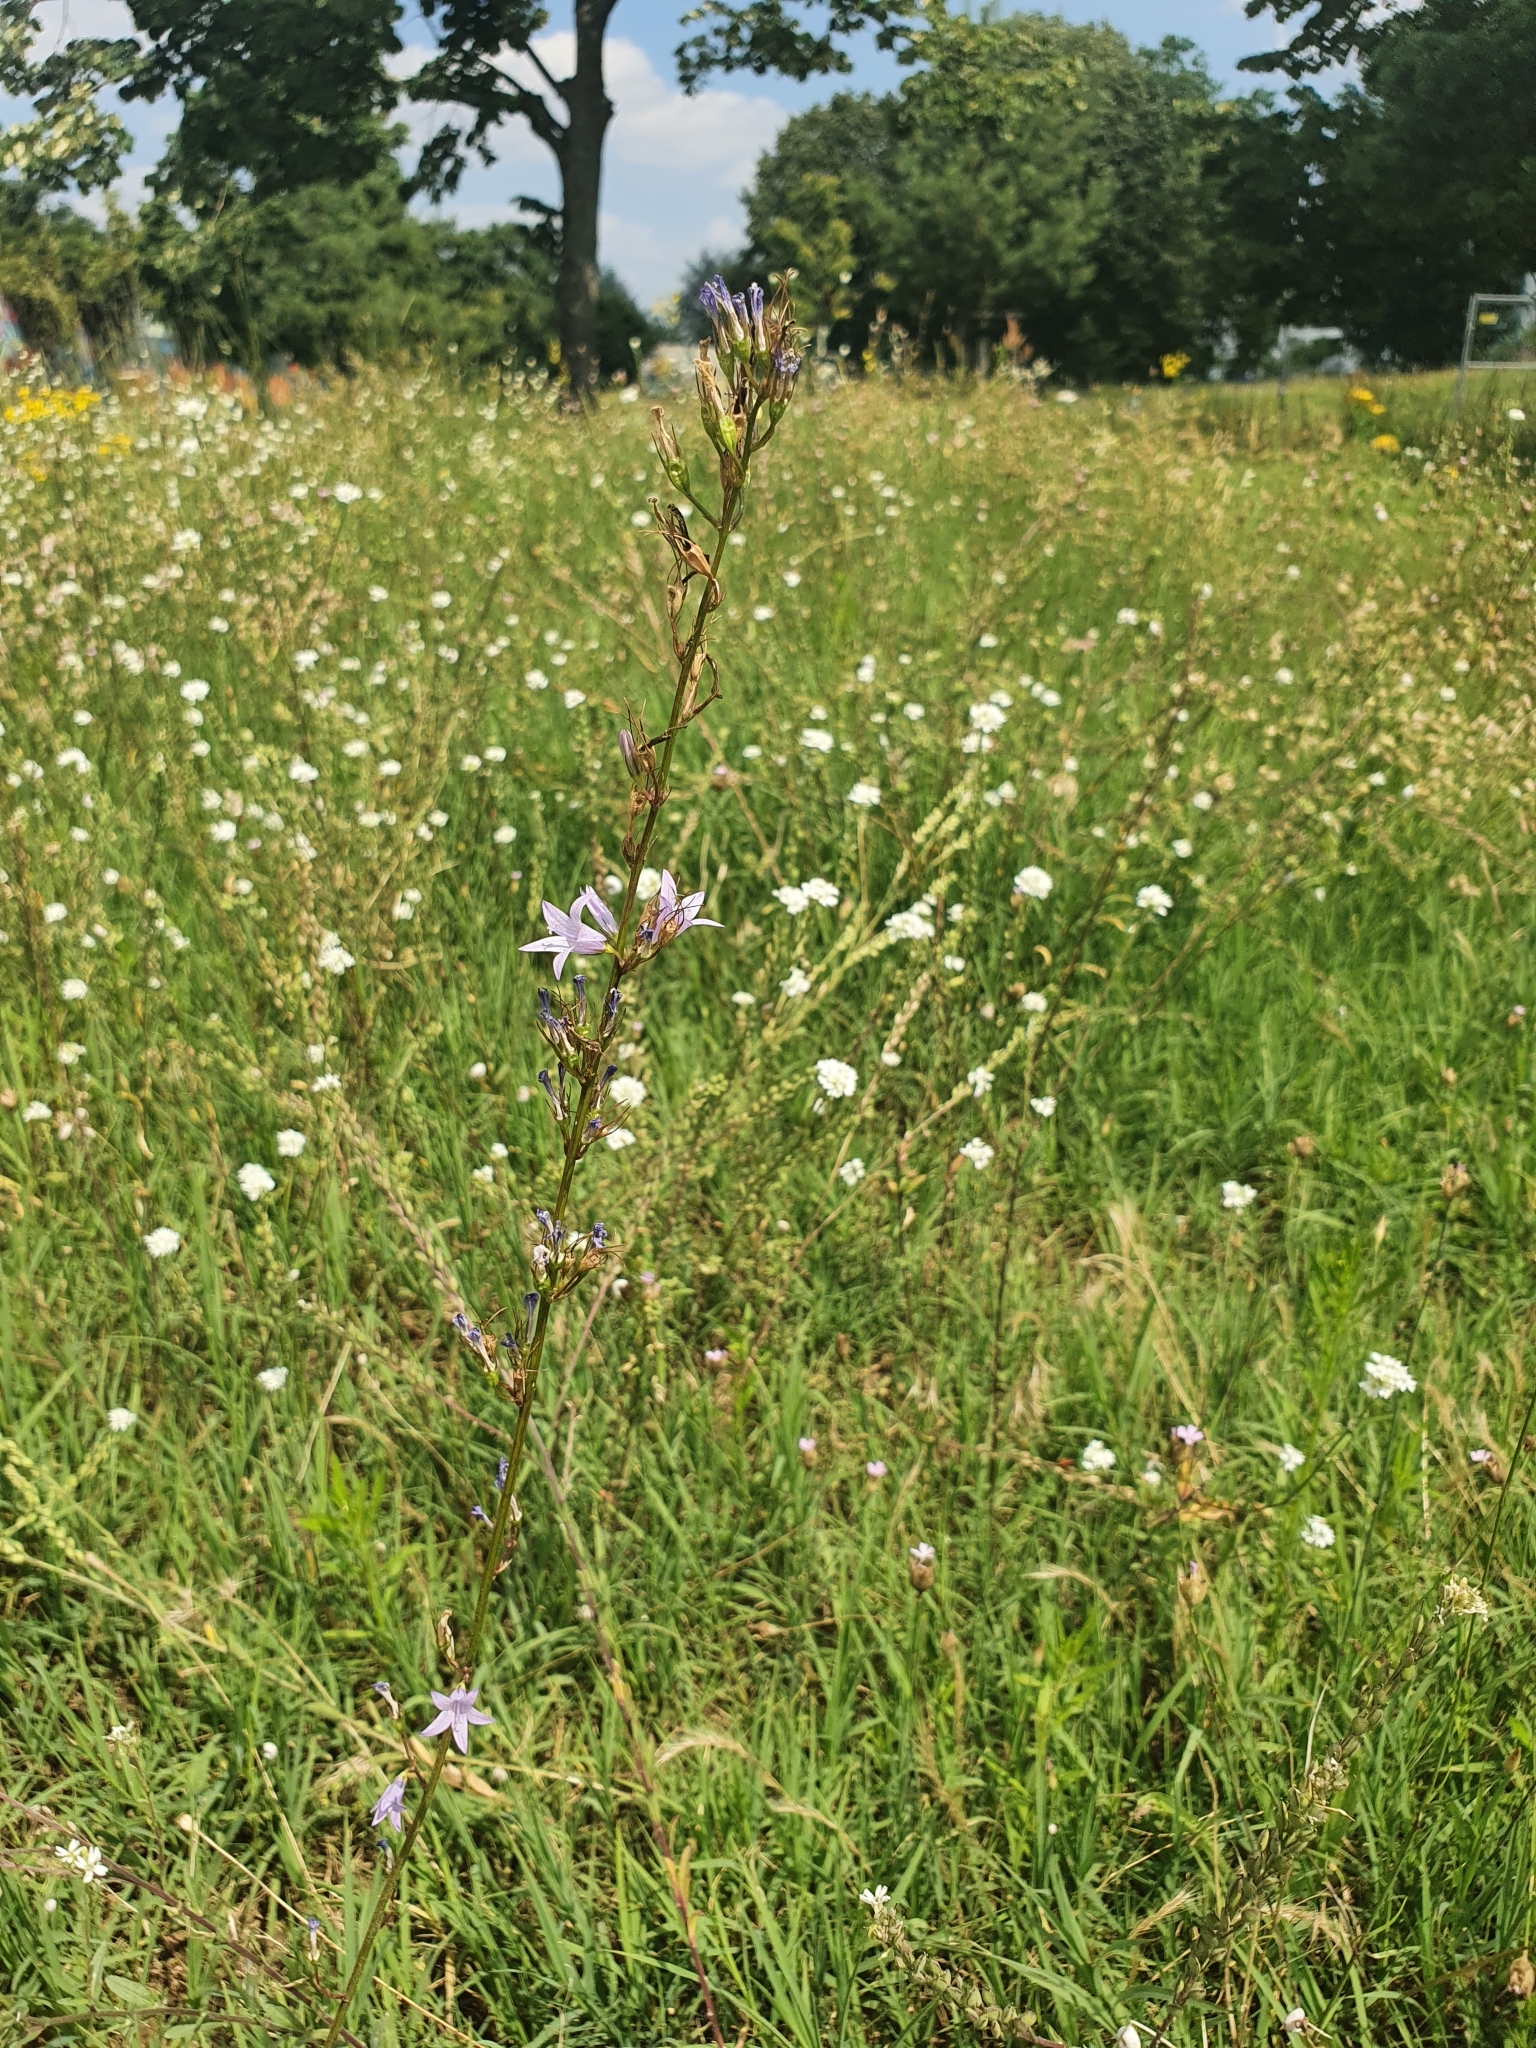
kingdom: Plantae
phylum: Tracheophyta
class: Magnoliopsida
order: Asterales
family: Campanulaceae
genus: Campanula
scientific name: Campanula rapunculus
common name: Rampion bellflower
